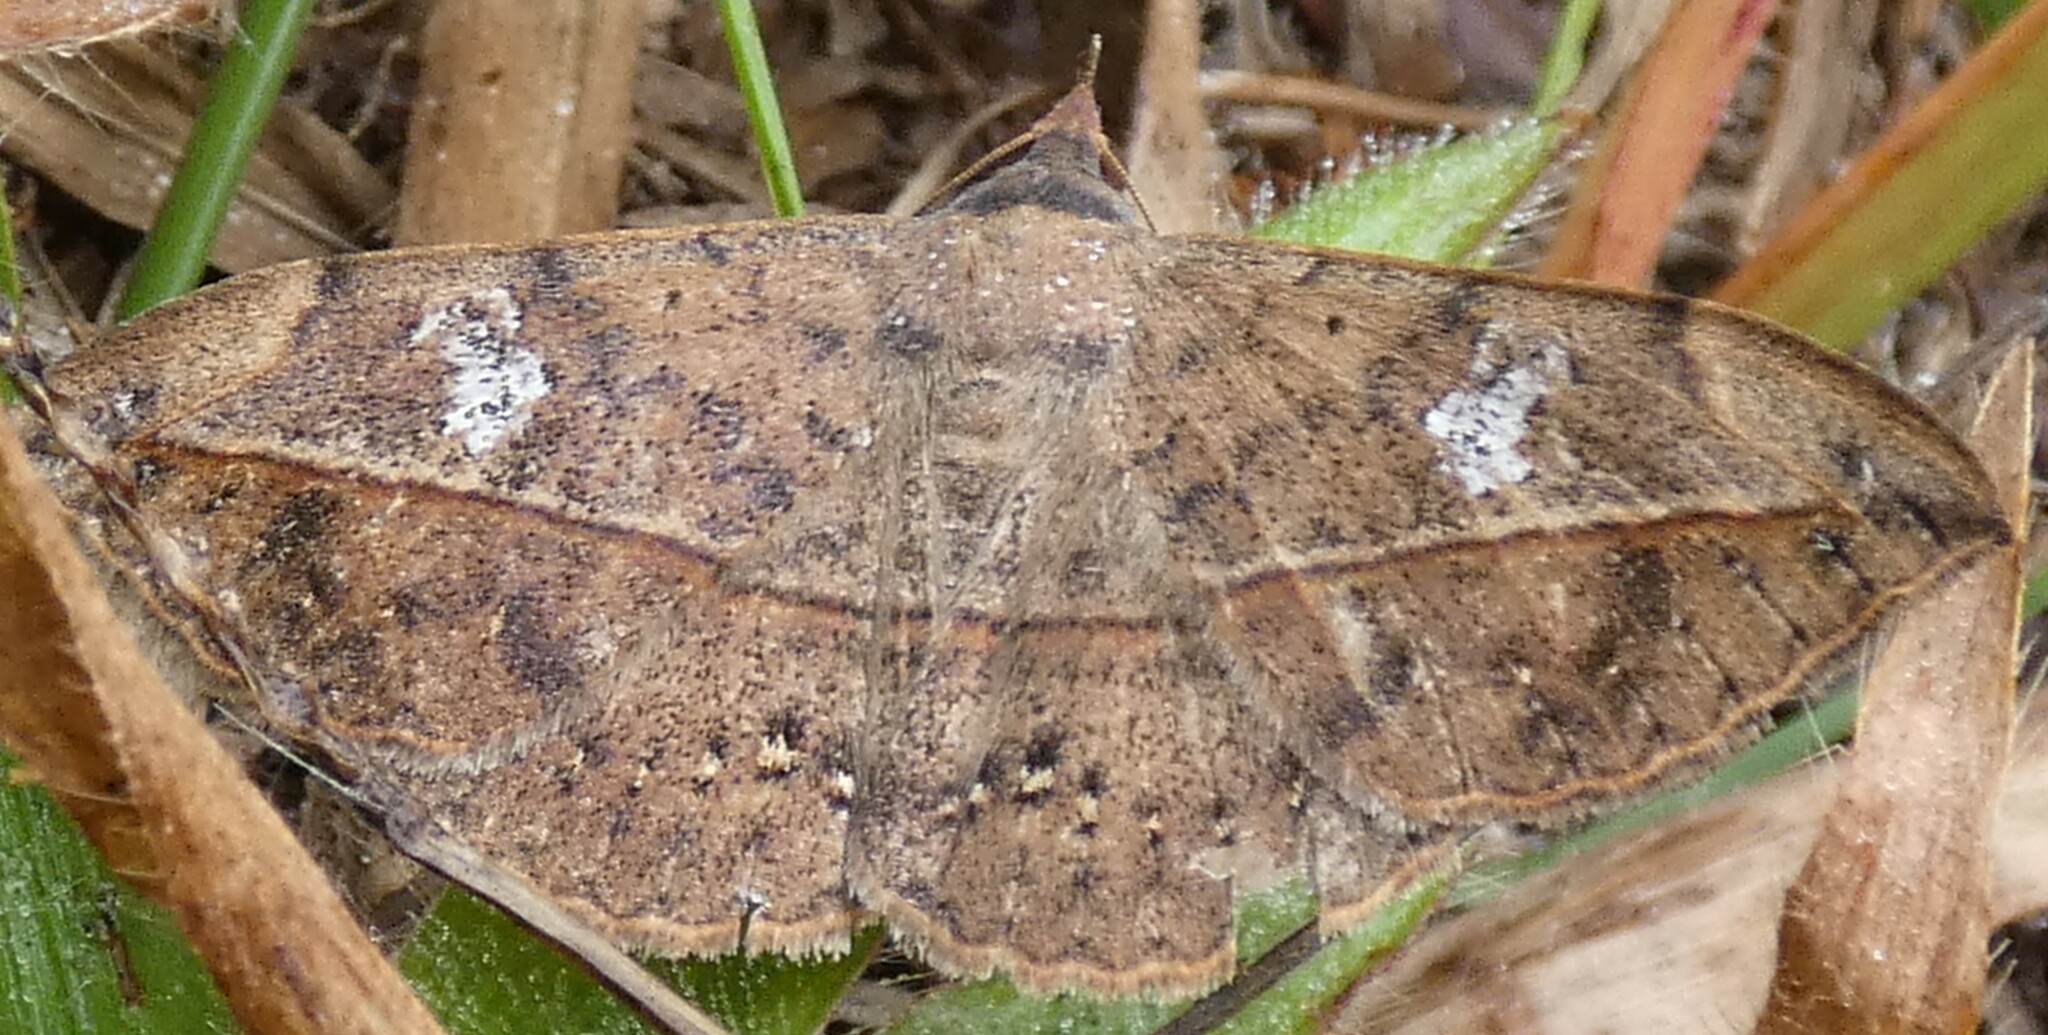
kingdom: Animalia
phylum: Arthropoda
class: Insecta
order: Lepidoptera
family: Erebidae
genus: Anticarsia
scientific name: Anticarsia gemmatalis
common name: Cutworm moth
